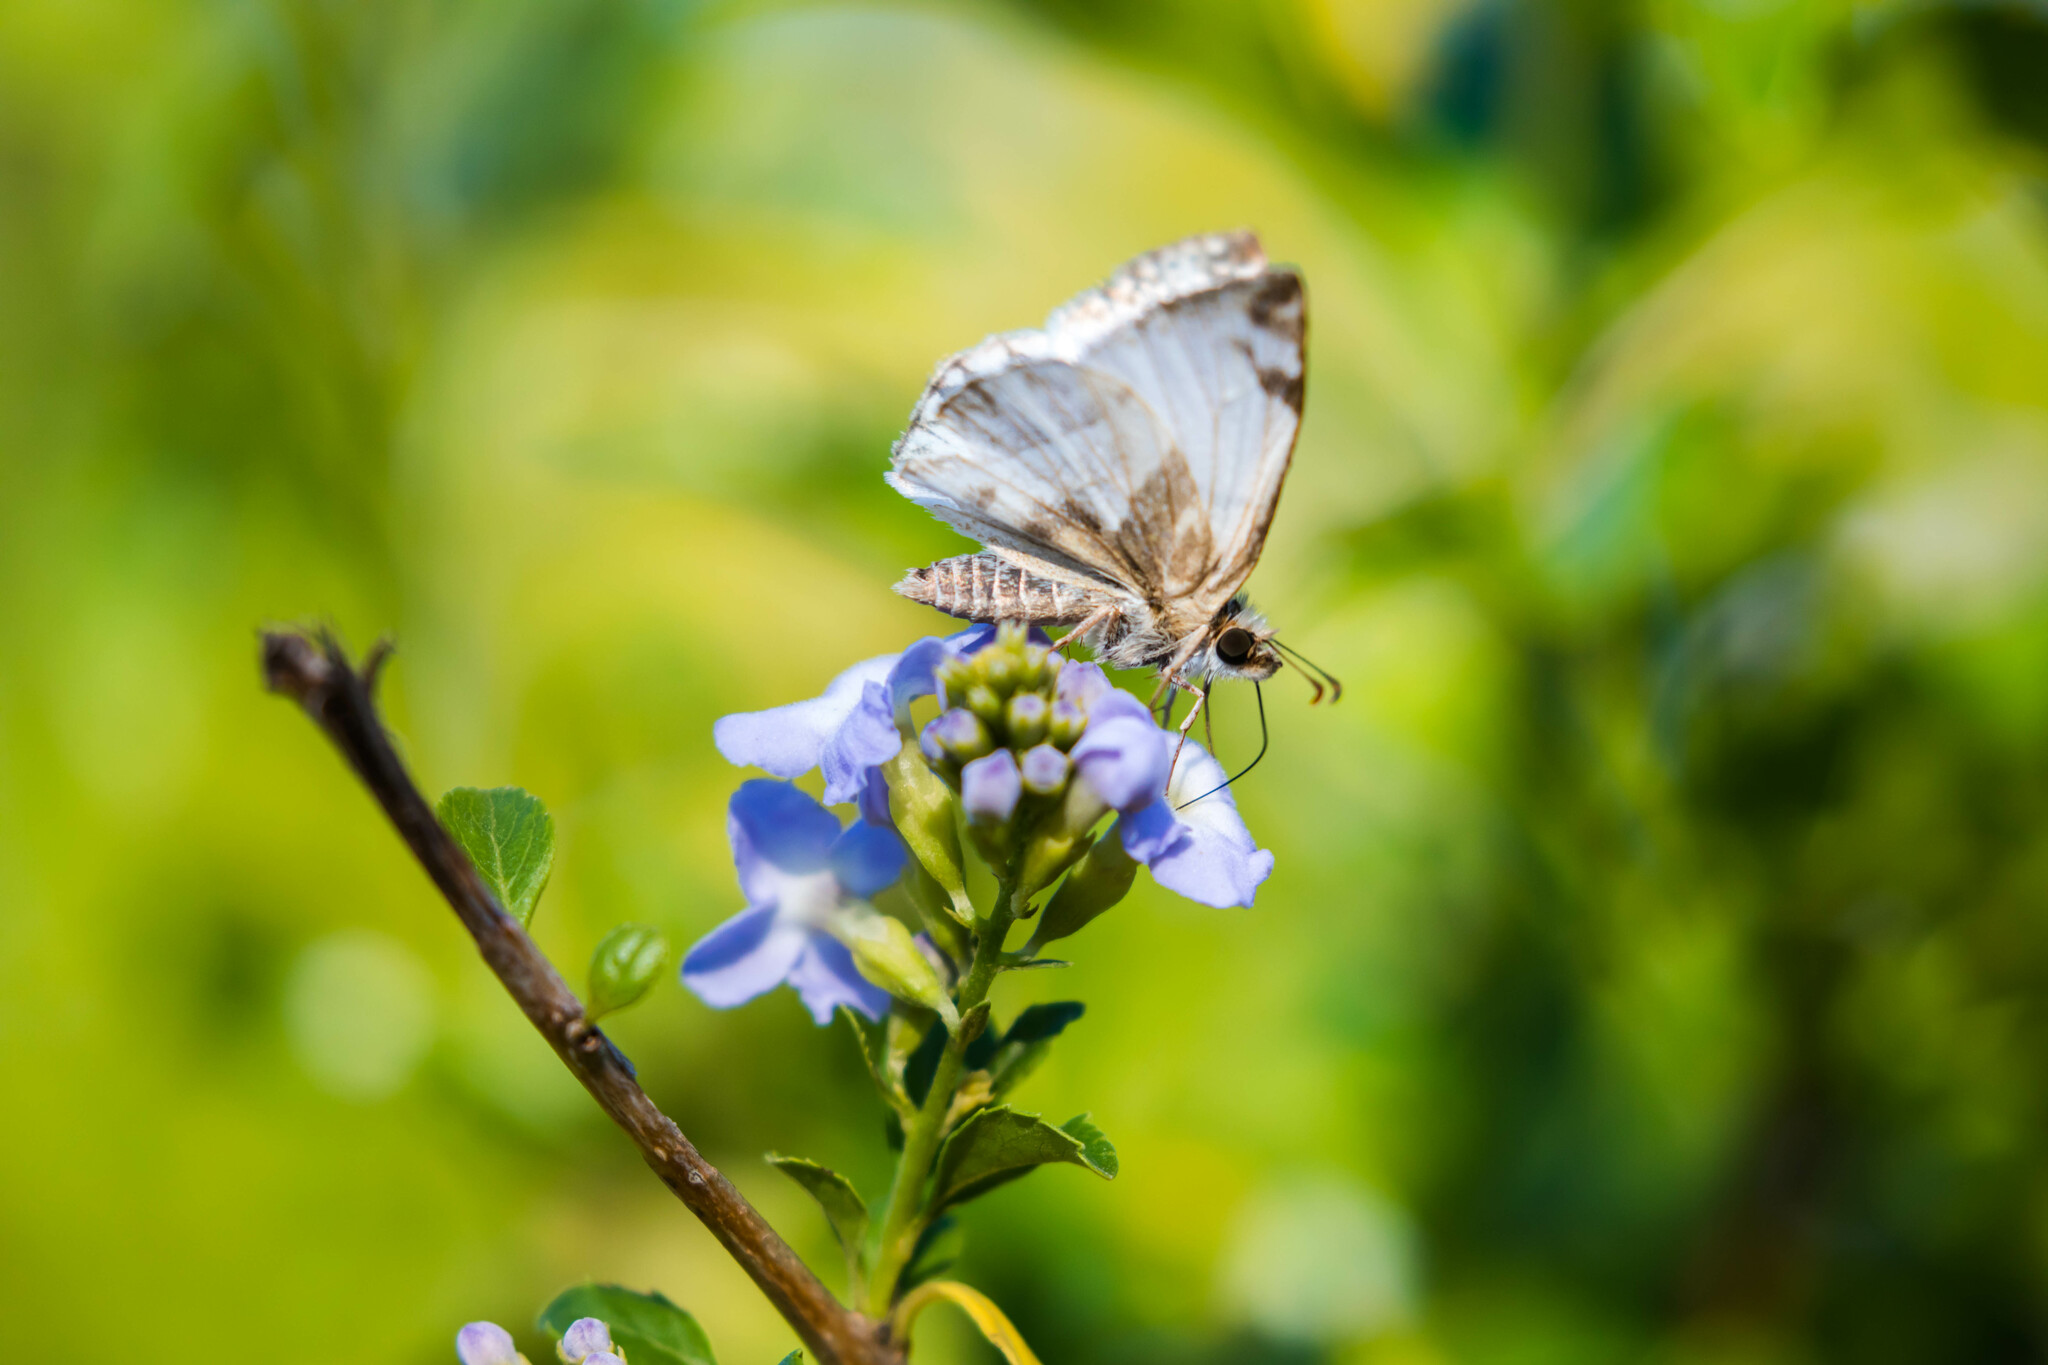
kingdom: Animalia
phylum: Arthropoda
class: Insecta
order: Lepidoptera
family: Hesperiidae
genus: Heliopetes
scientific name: Heliopetes laviana
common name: Laviana white-skipper
